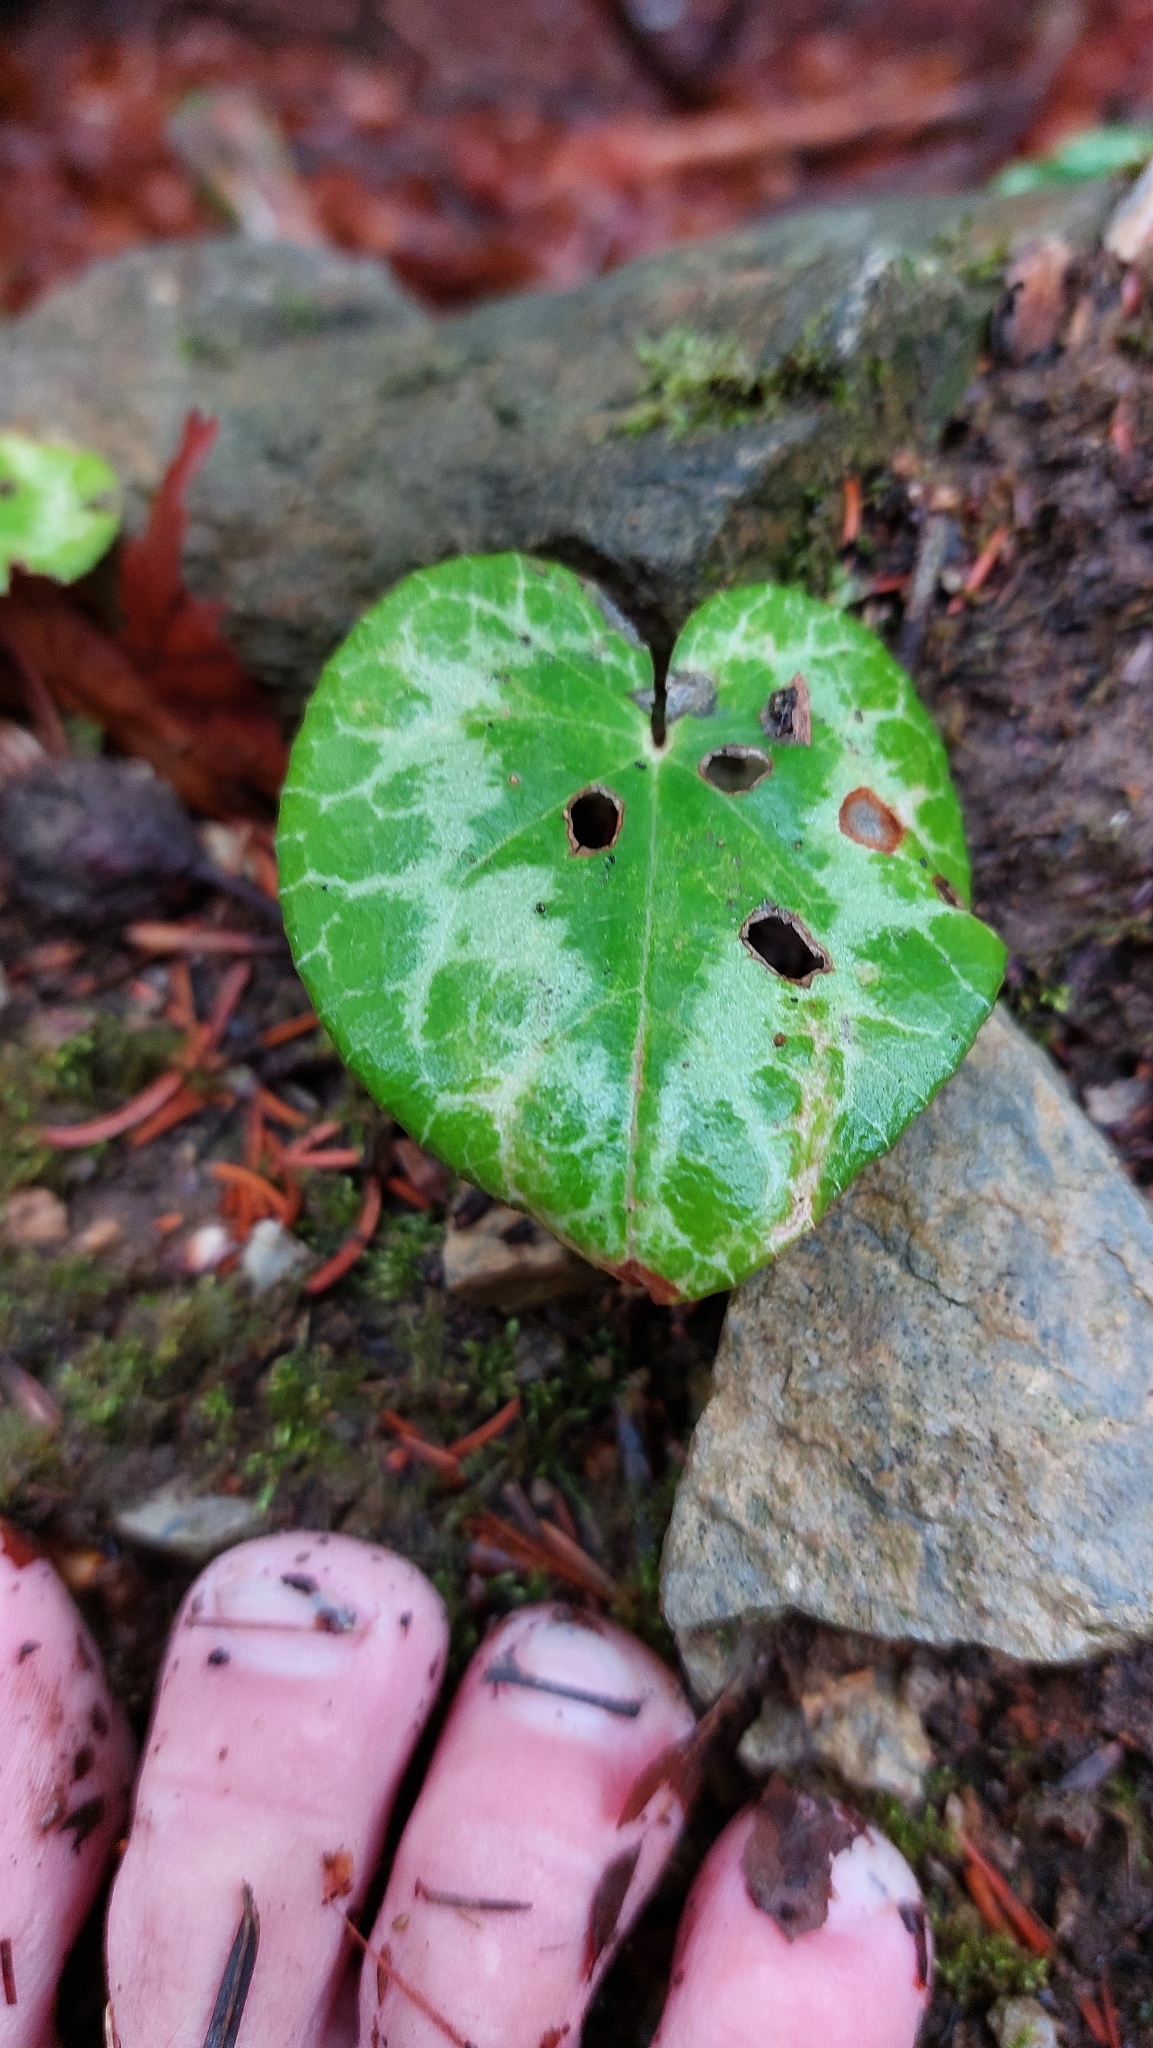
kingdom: Plantae
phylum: Tracheophyta
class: Magnoliopsida
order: Ericales
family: Primulaceae
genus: Cyclamen
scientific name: Cyclamen purpurascens
